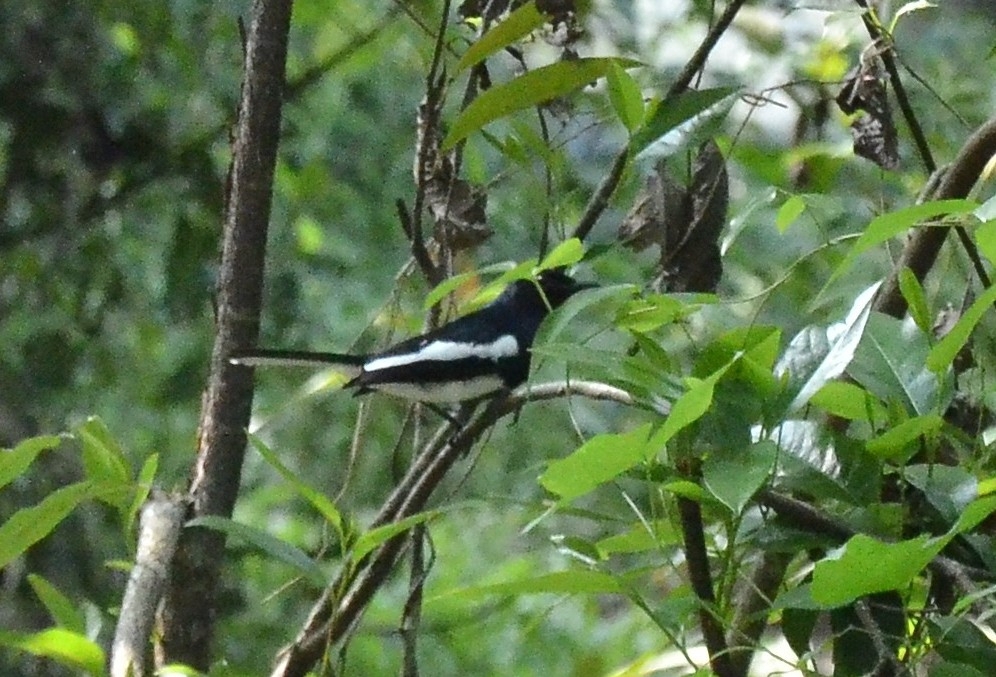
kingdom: Animalia
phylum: Chordata
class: Aves
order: Passeriformes
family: Muscicapidae
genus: Copsychus
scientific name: Copsychus saularis
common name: Oriental magpie-robin
